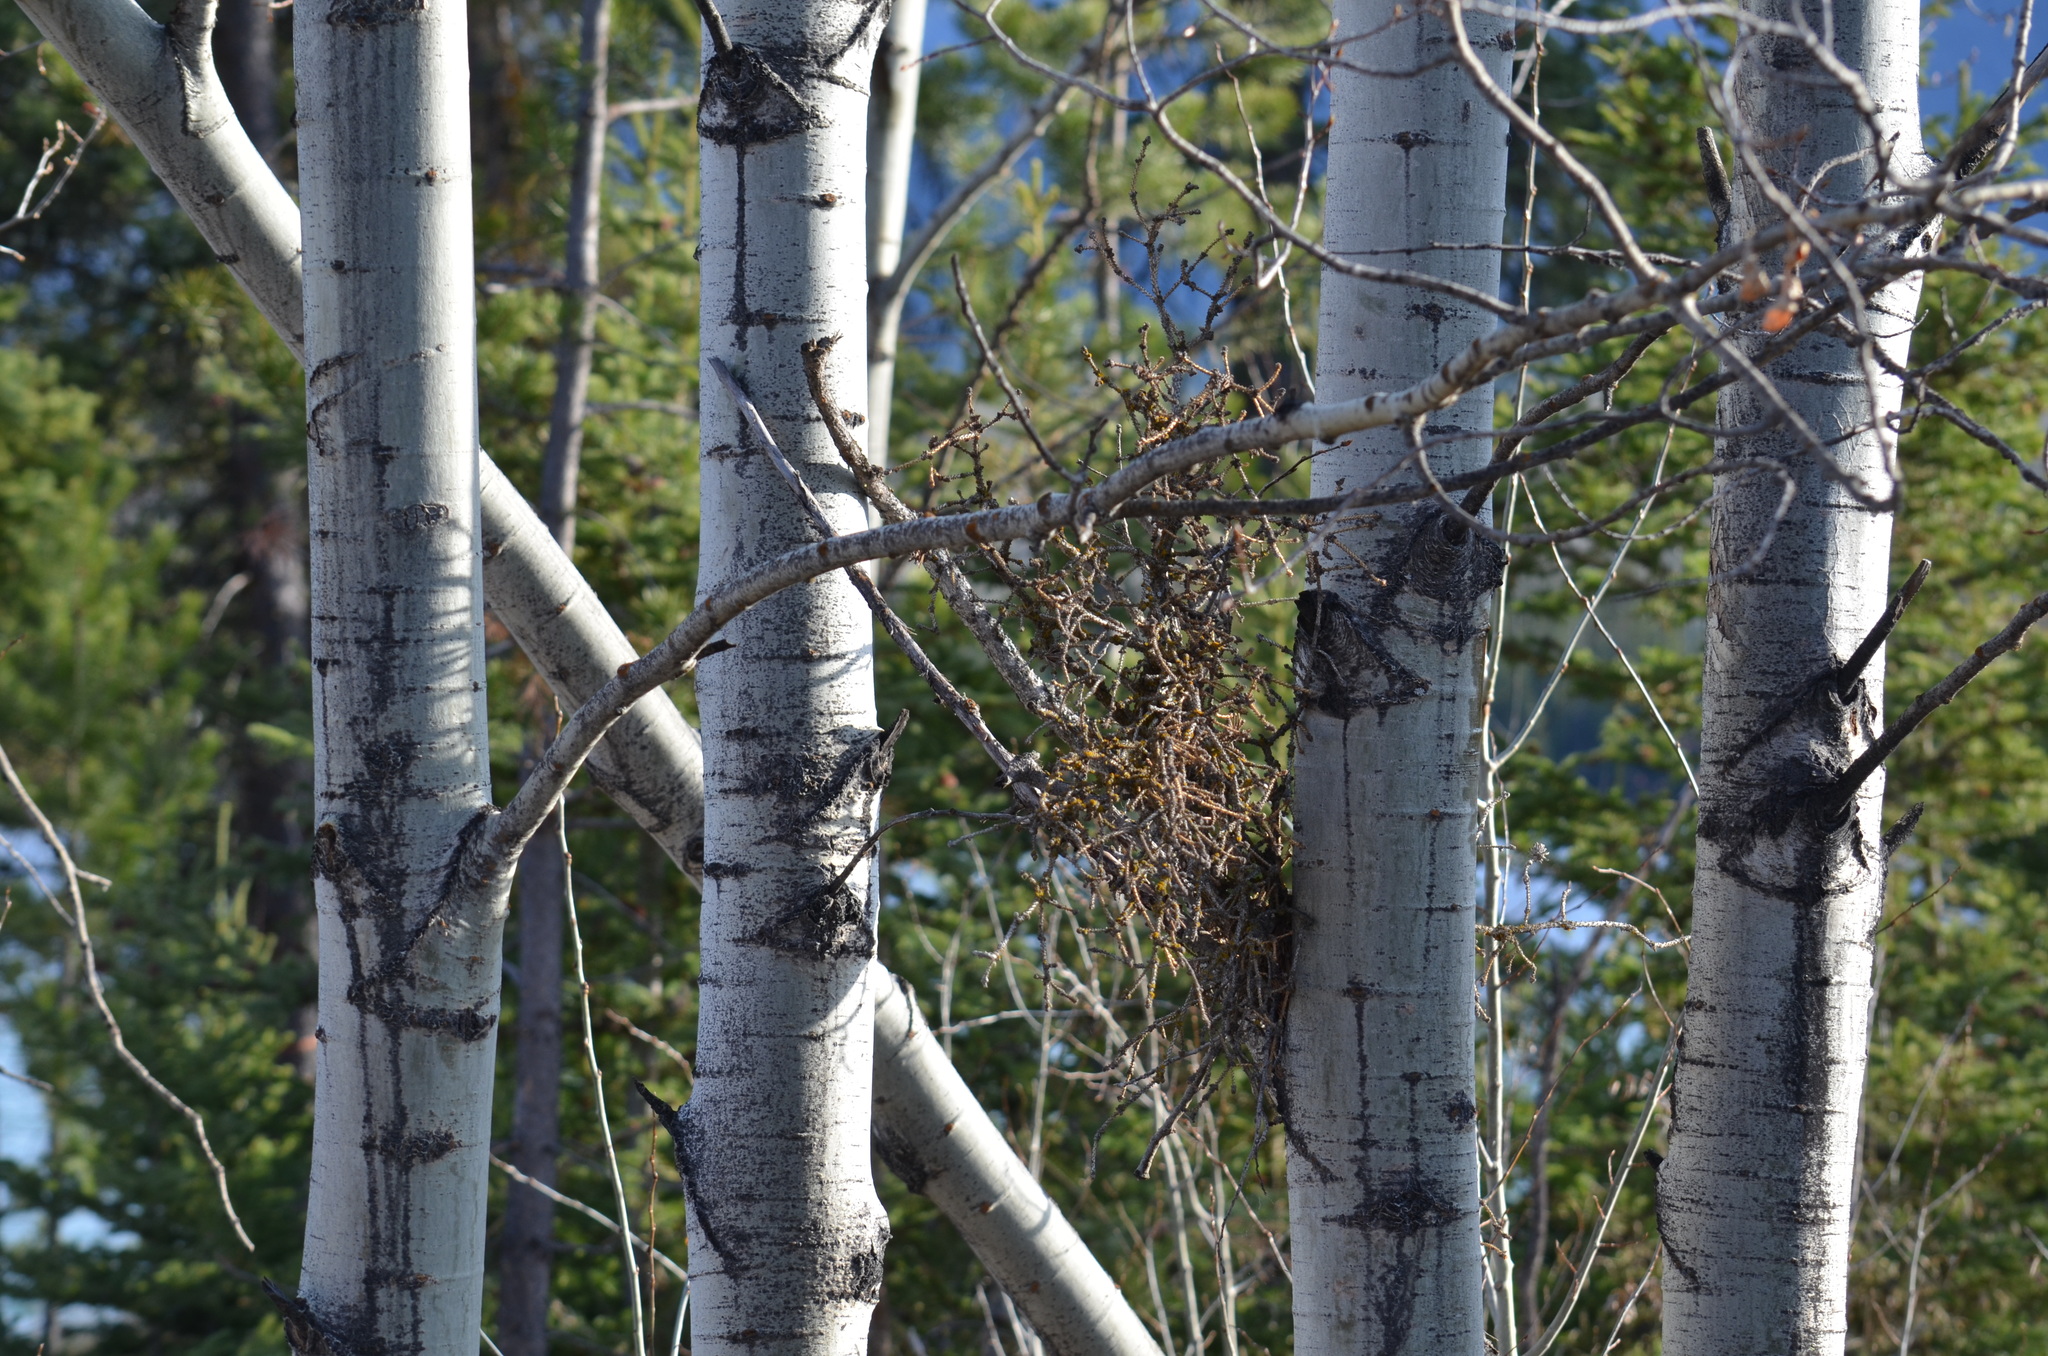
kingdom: Plantae
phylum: Tracheophyta
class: Magnoliopsida
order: Malpighiales
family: Salicaceae
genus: Populus
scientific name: Populus tremuloides
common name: Quaking aspen
